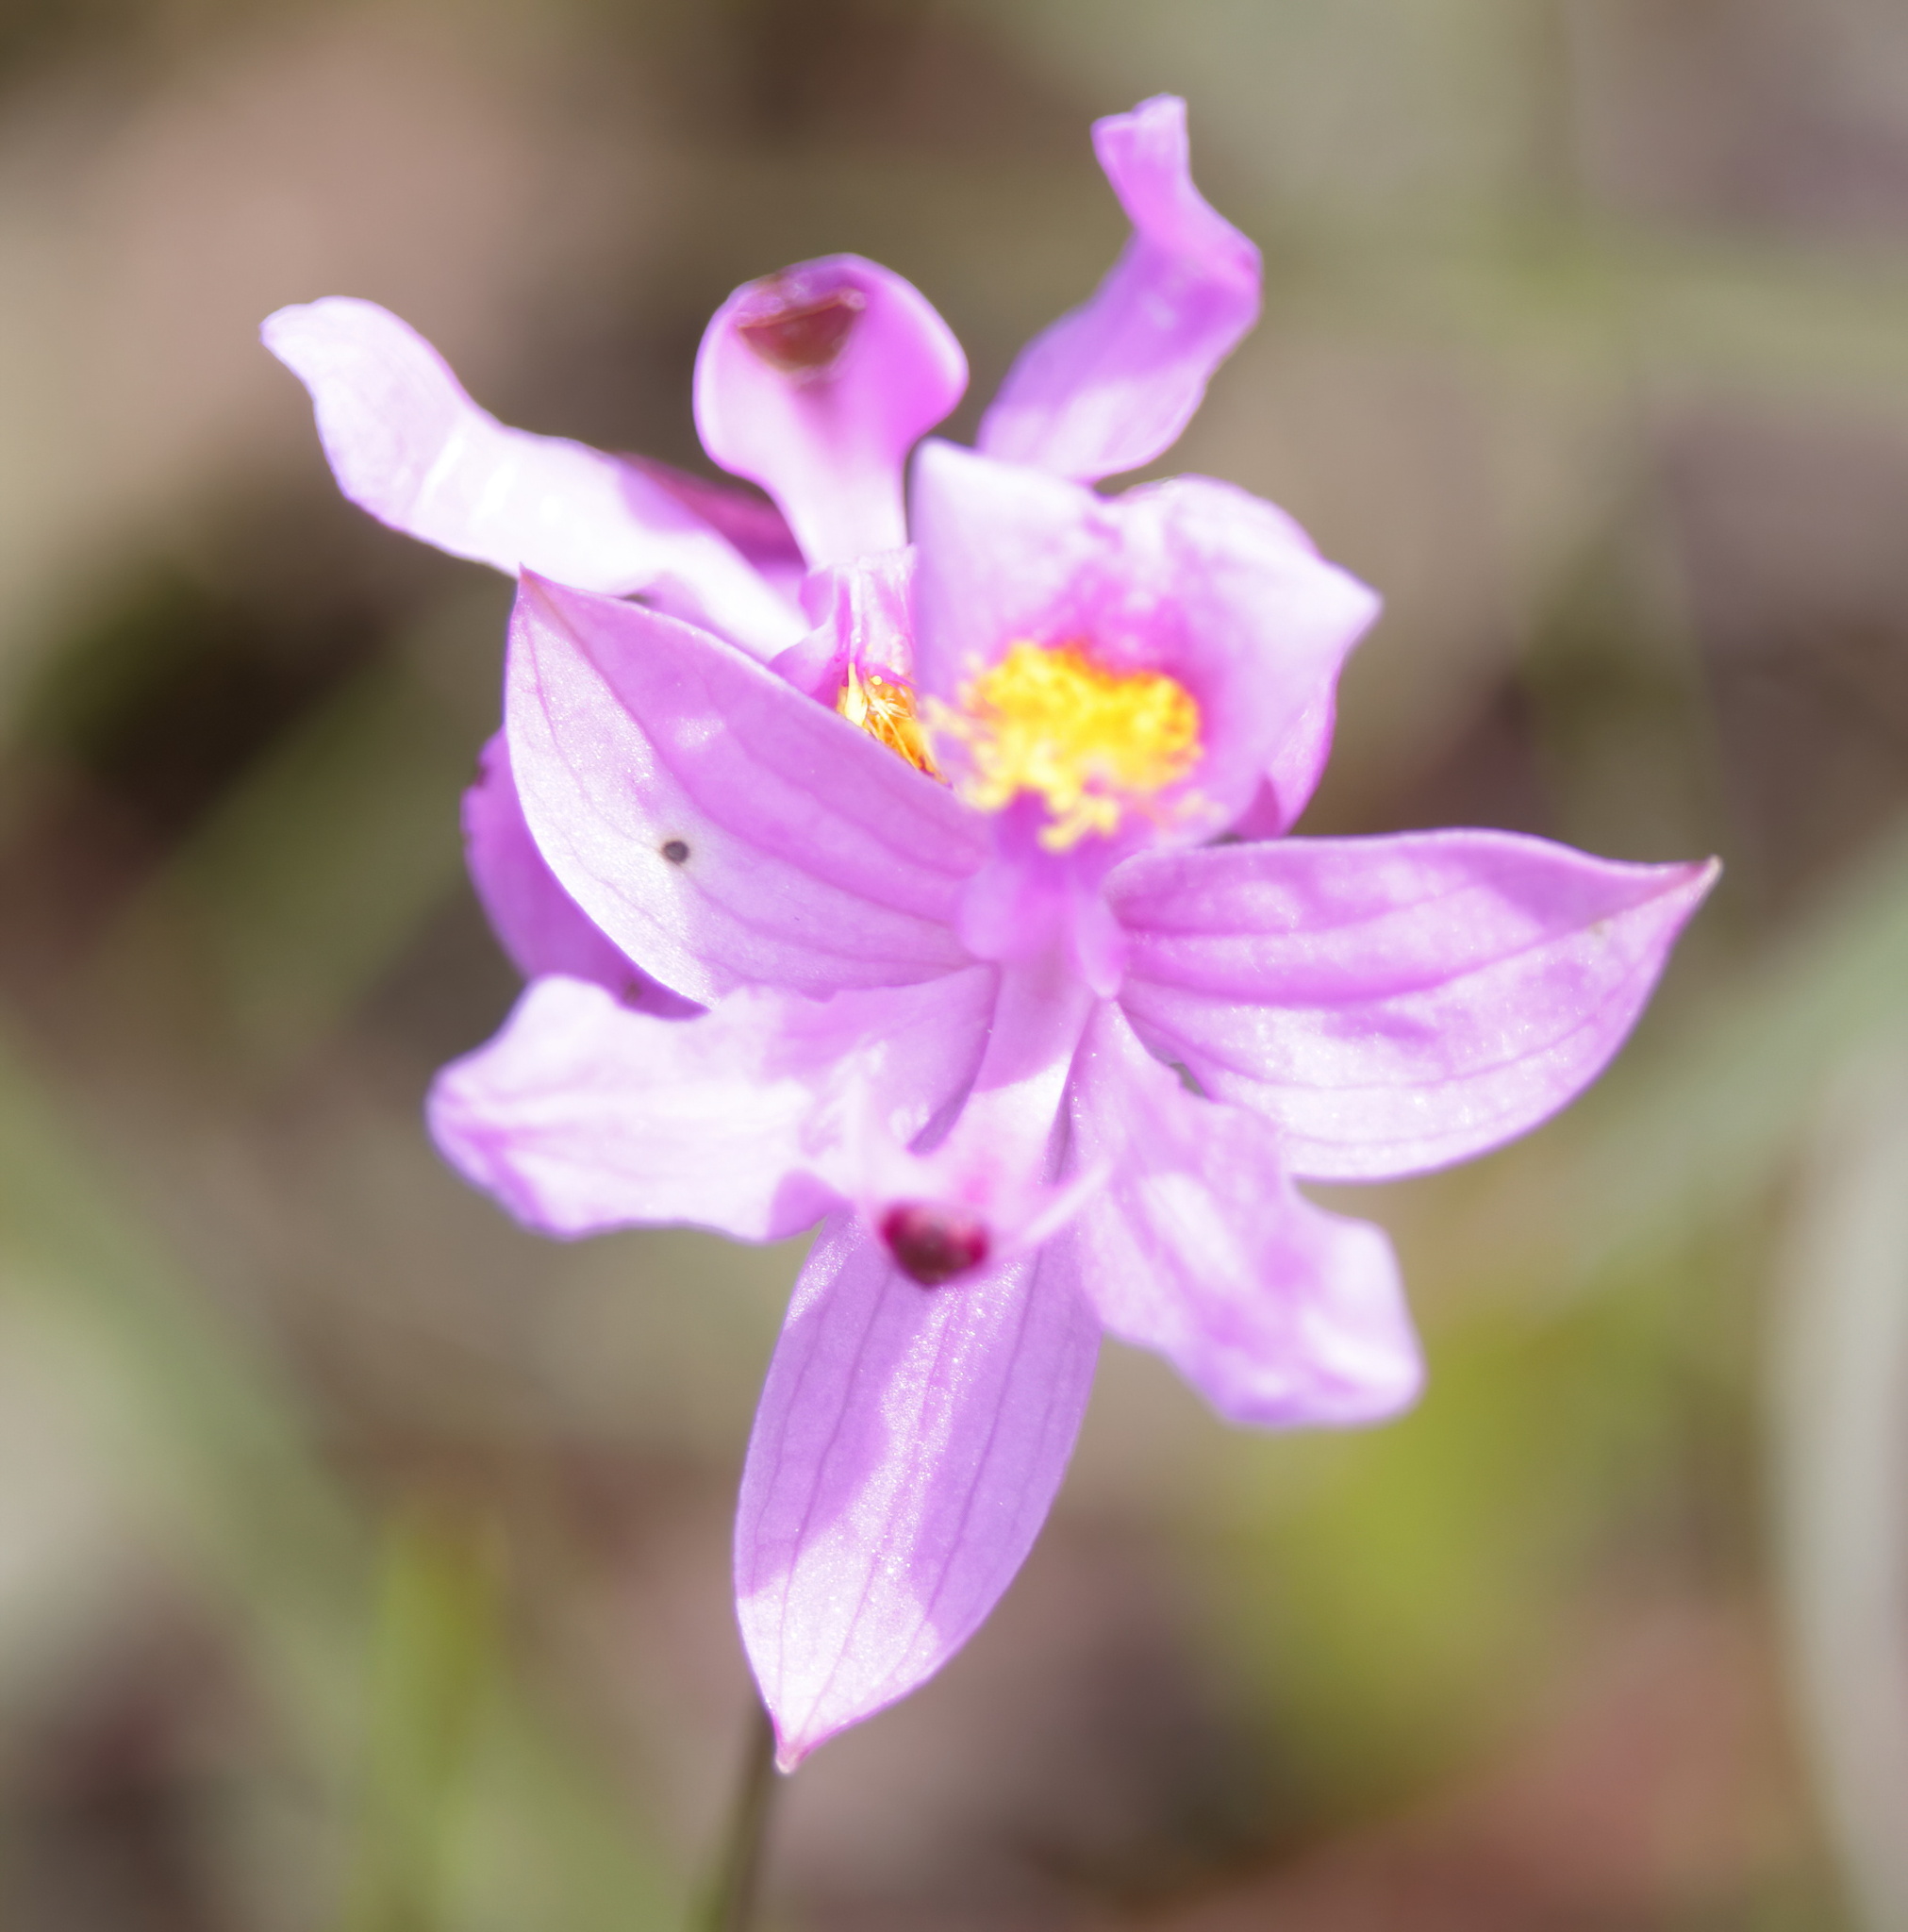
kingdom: Plantae
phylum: Tracheophyta
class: Liliopsida
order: Asparagales
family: Orchidaceae
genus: Calopogon
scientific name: Calopogon barbatus
